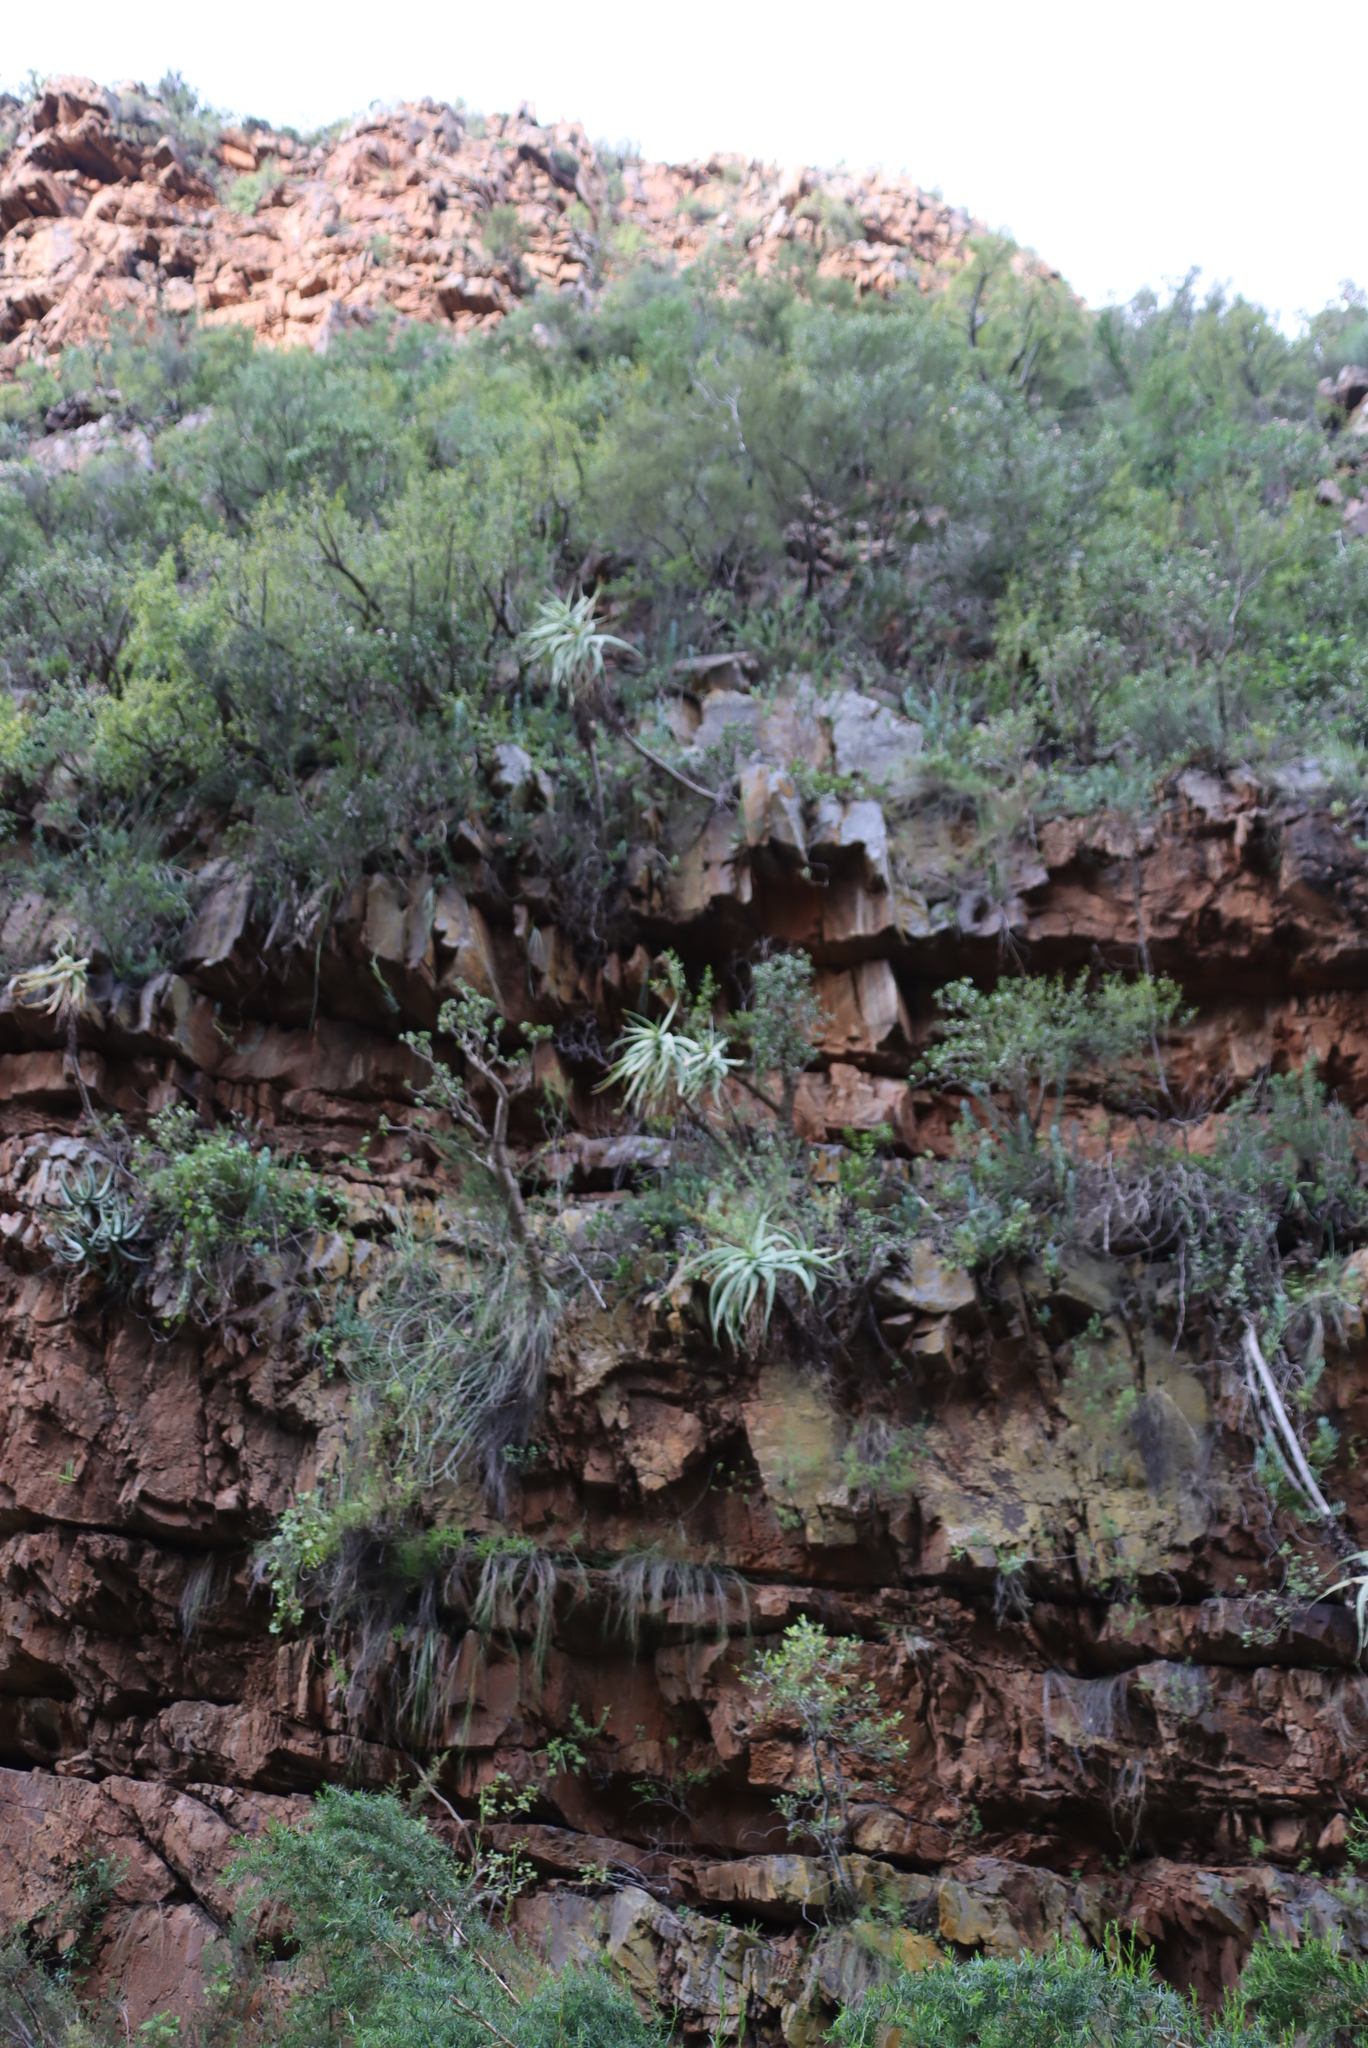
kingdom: Plantae
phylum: Tracheophyta
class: Liliopsida
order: Asparagales
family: Asphodelaceae
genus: Aloe
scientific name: Aloe speciosa
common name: Beautiful aloe
